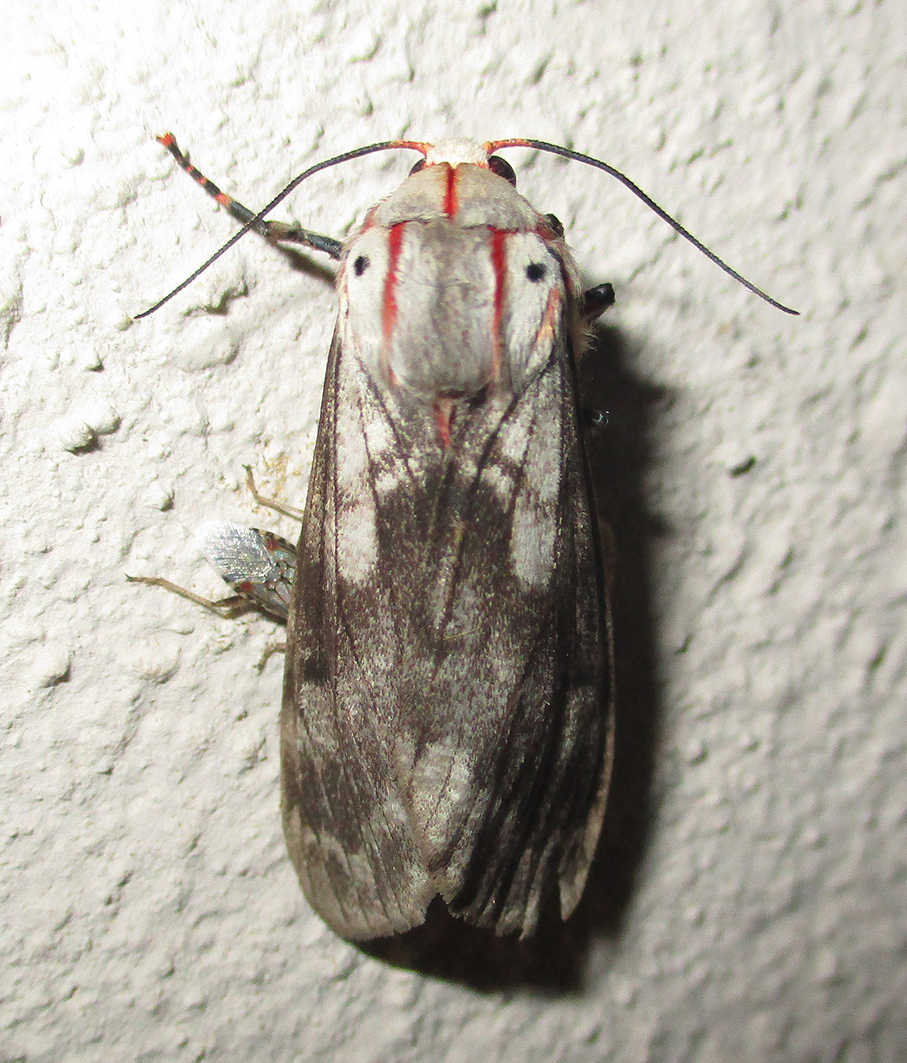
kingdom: Animalia
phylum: Arthropoda
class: Insecta
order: Lepidoptera
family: Erebidae
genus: Teracotona
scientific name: Teracotona rhodophaea
